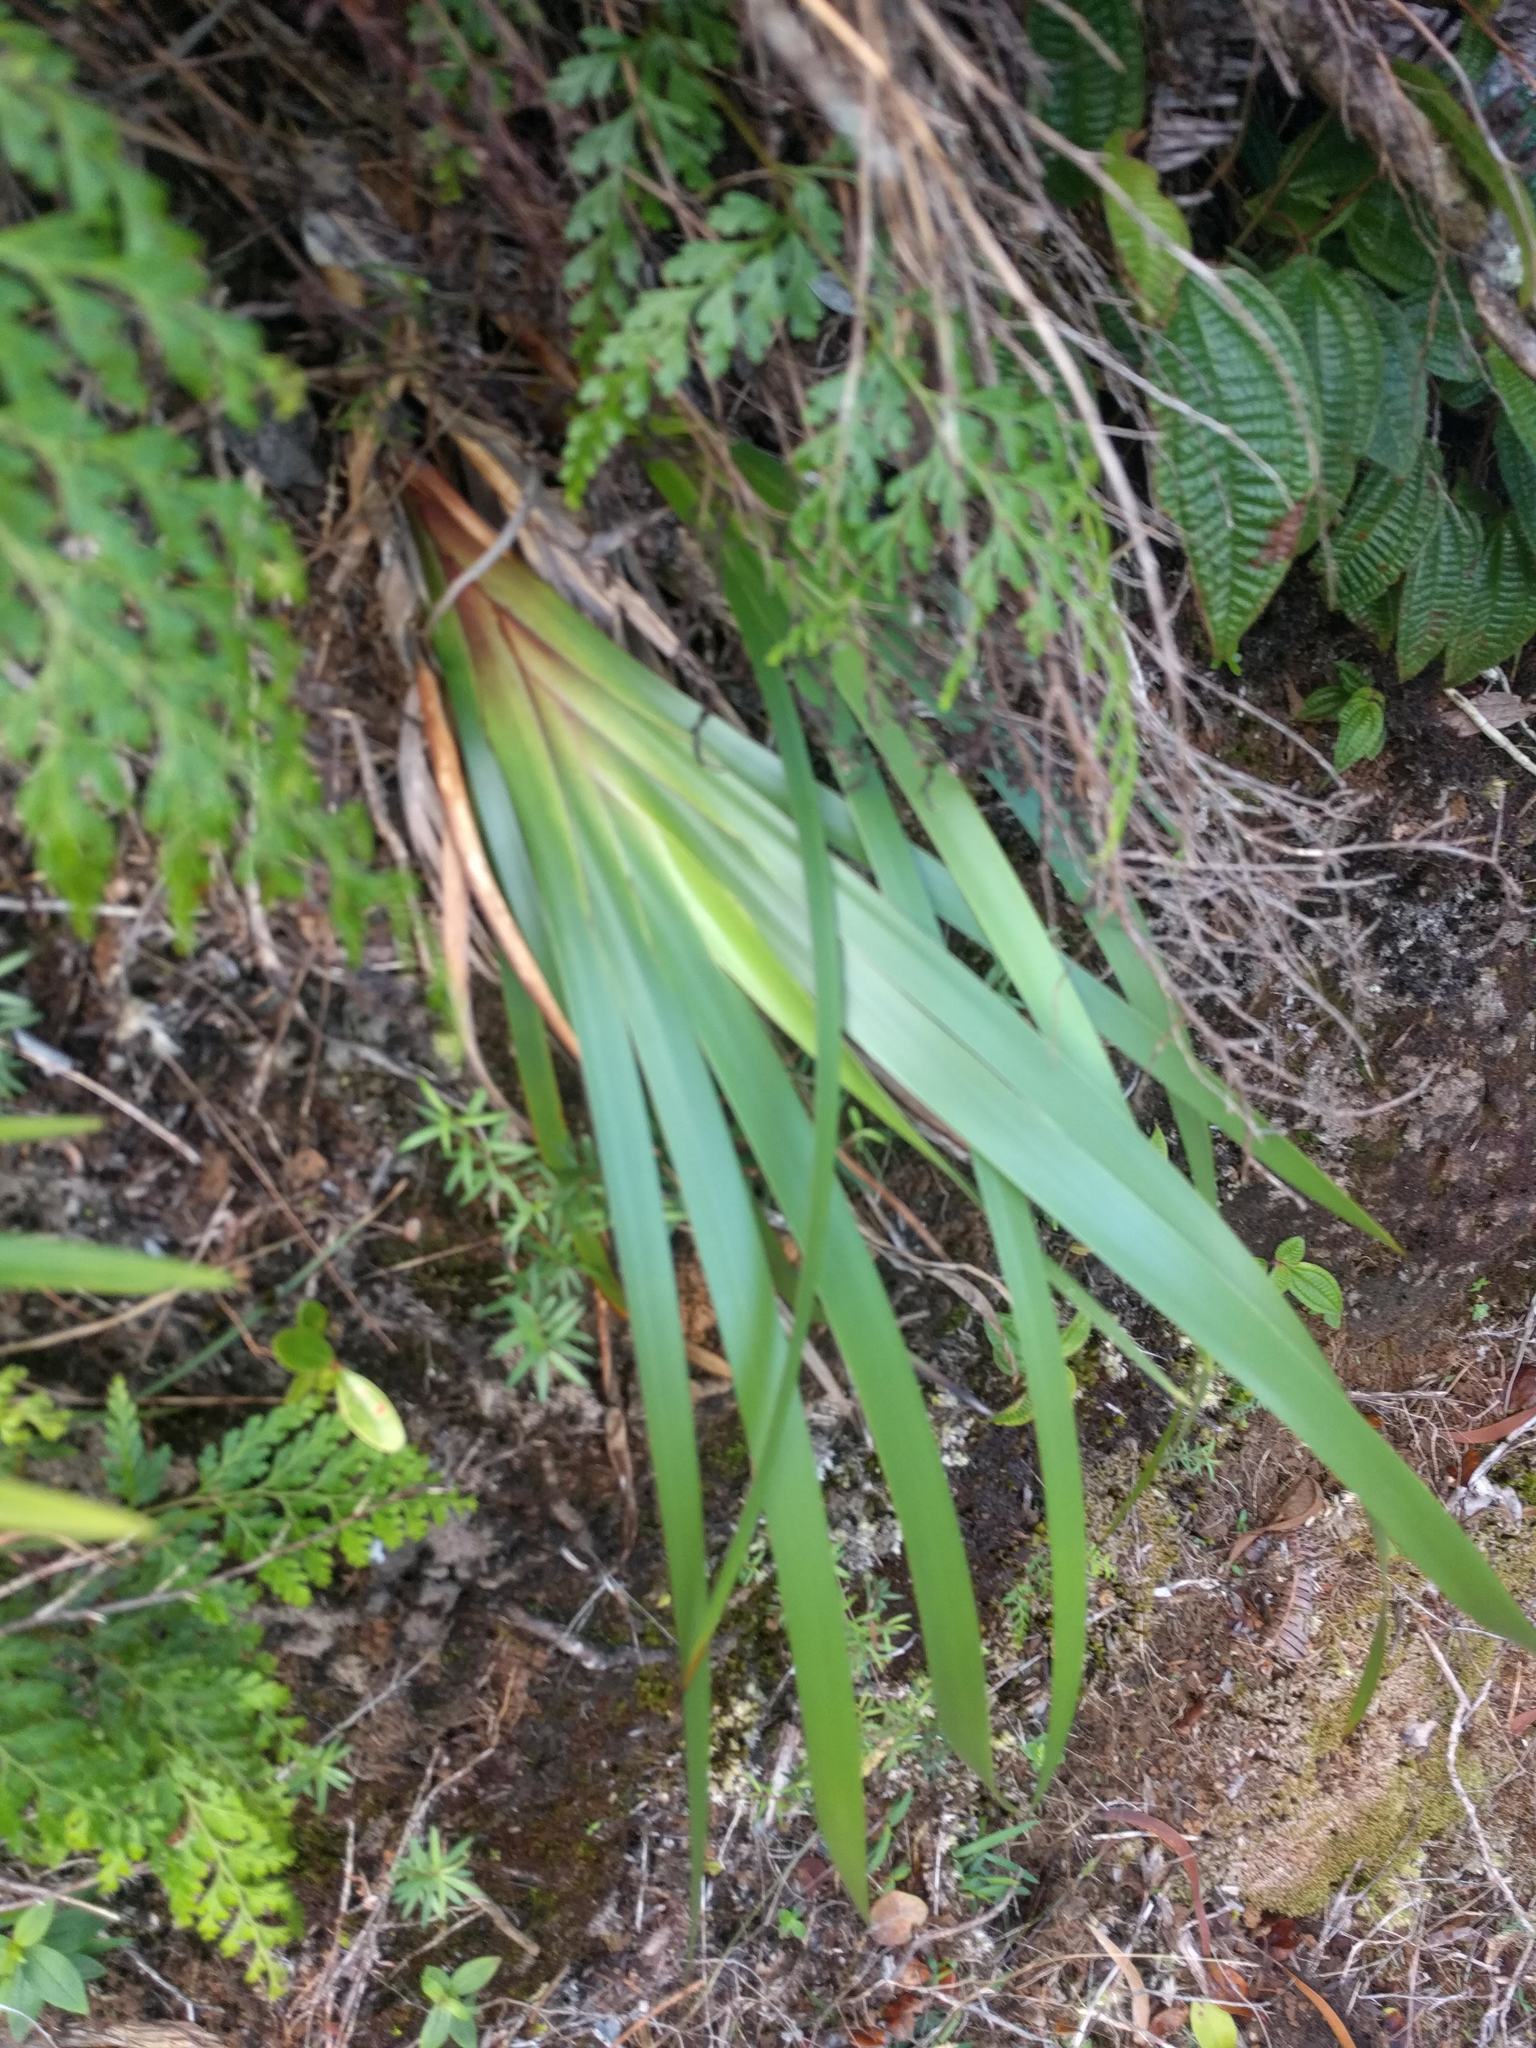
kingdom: Plantae
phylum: Tracheophyta
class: Liliopsida
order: Poales
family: Cyperaceae
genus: Machaerina
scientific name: Machaerina angustifolia
